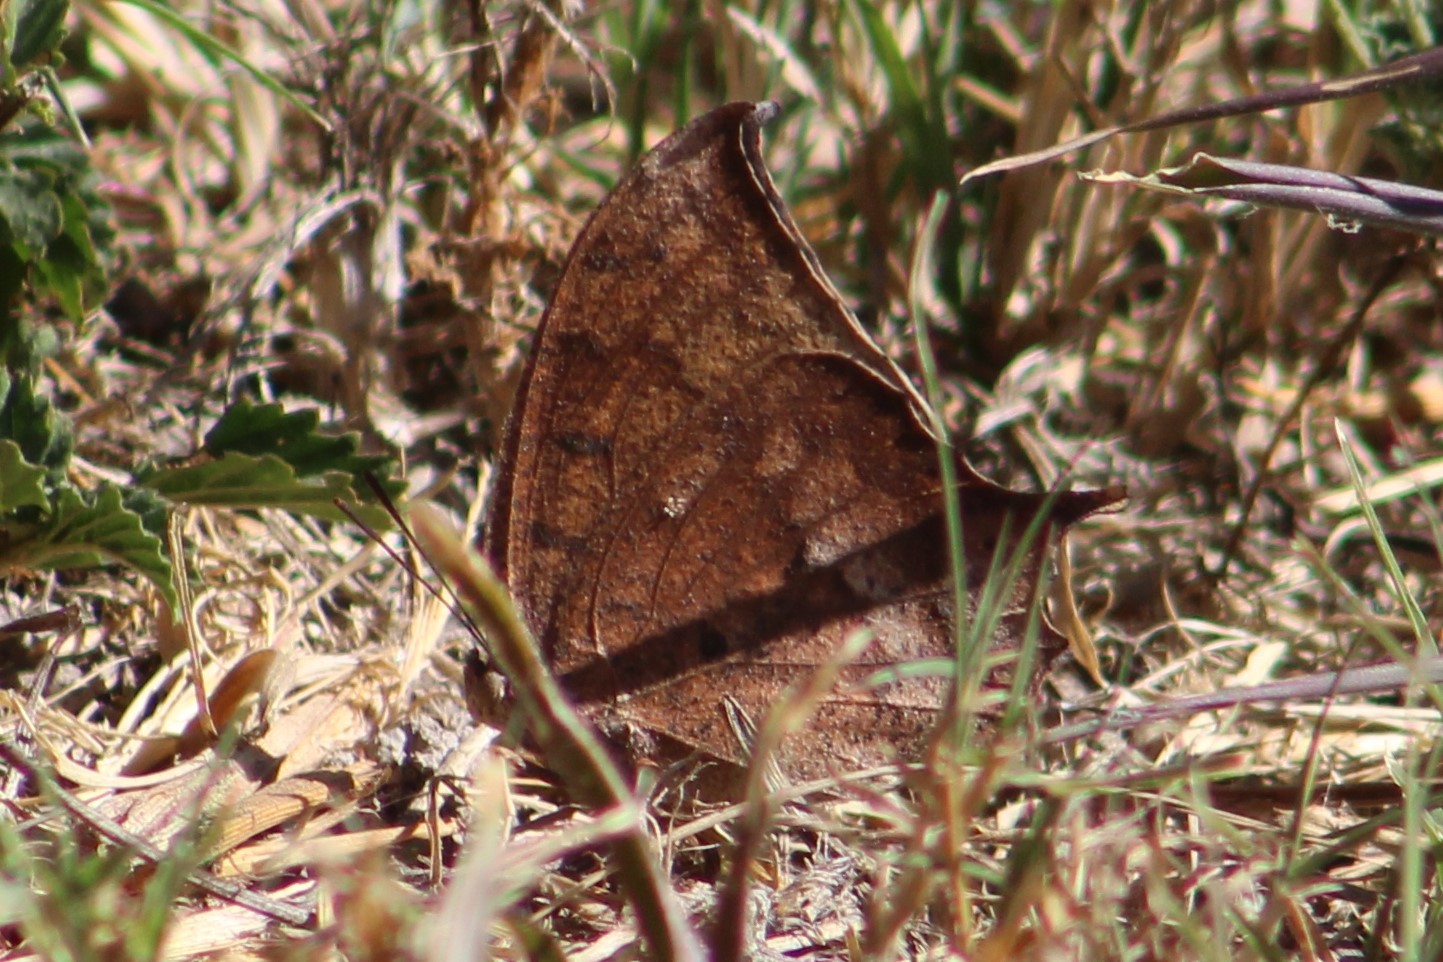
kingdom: Animalia
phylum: Arthropoda
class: Insecta
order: Lepidoptera
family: Nymphalidae
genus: Anaea
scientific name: Anaea andria
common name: Goatweed leafwing
